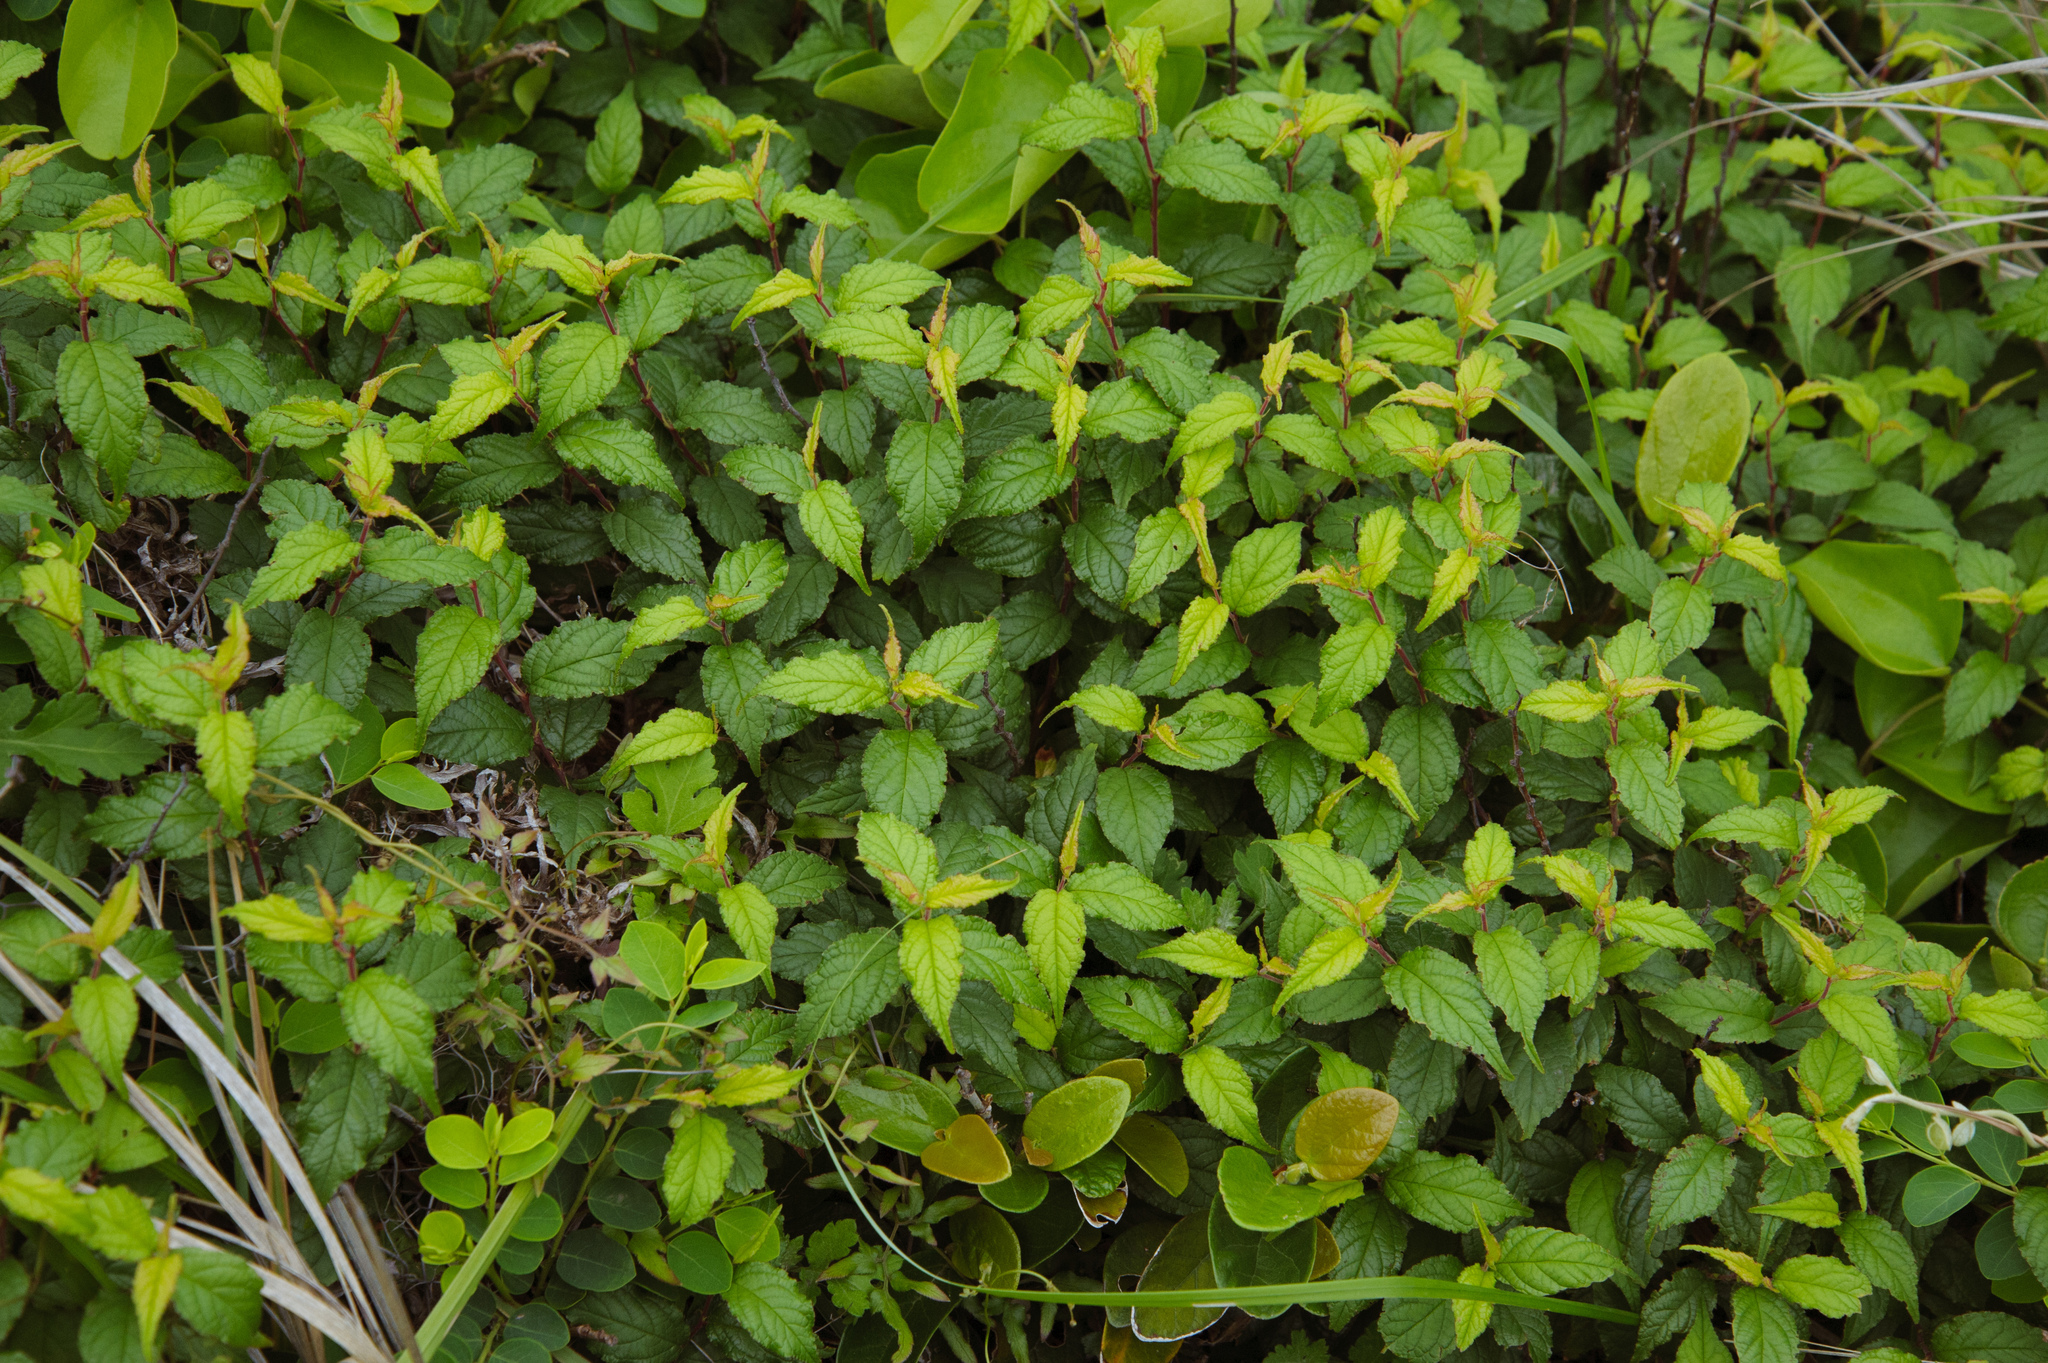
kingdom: Plantae
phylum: Tracheophyta
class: Magnoliopsida
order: Rosales
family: Rosaceae
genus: Prunus
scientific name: Prunus japonica
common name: Chinese bush cherry
